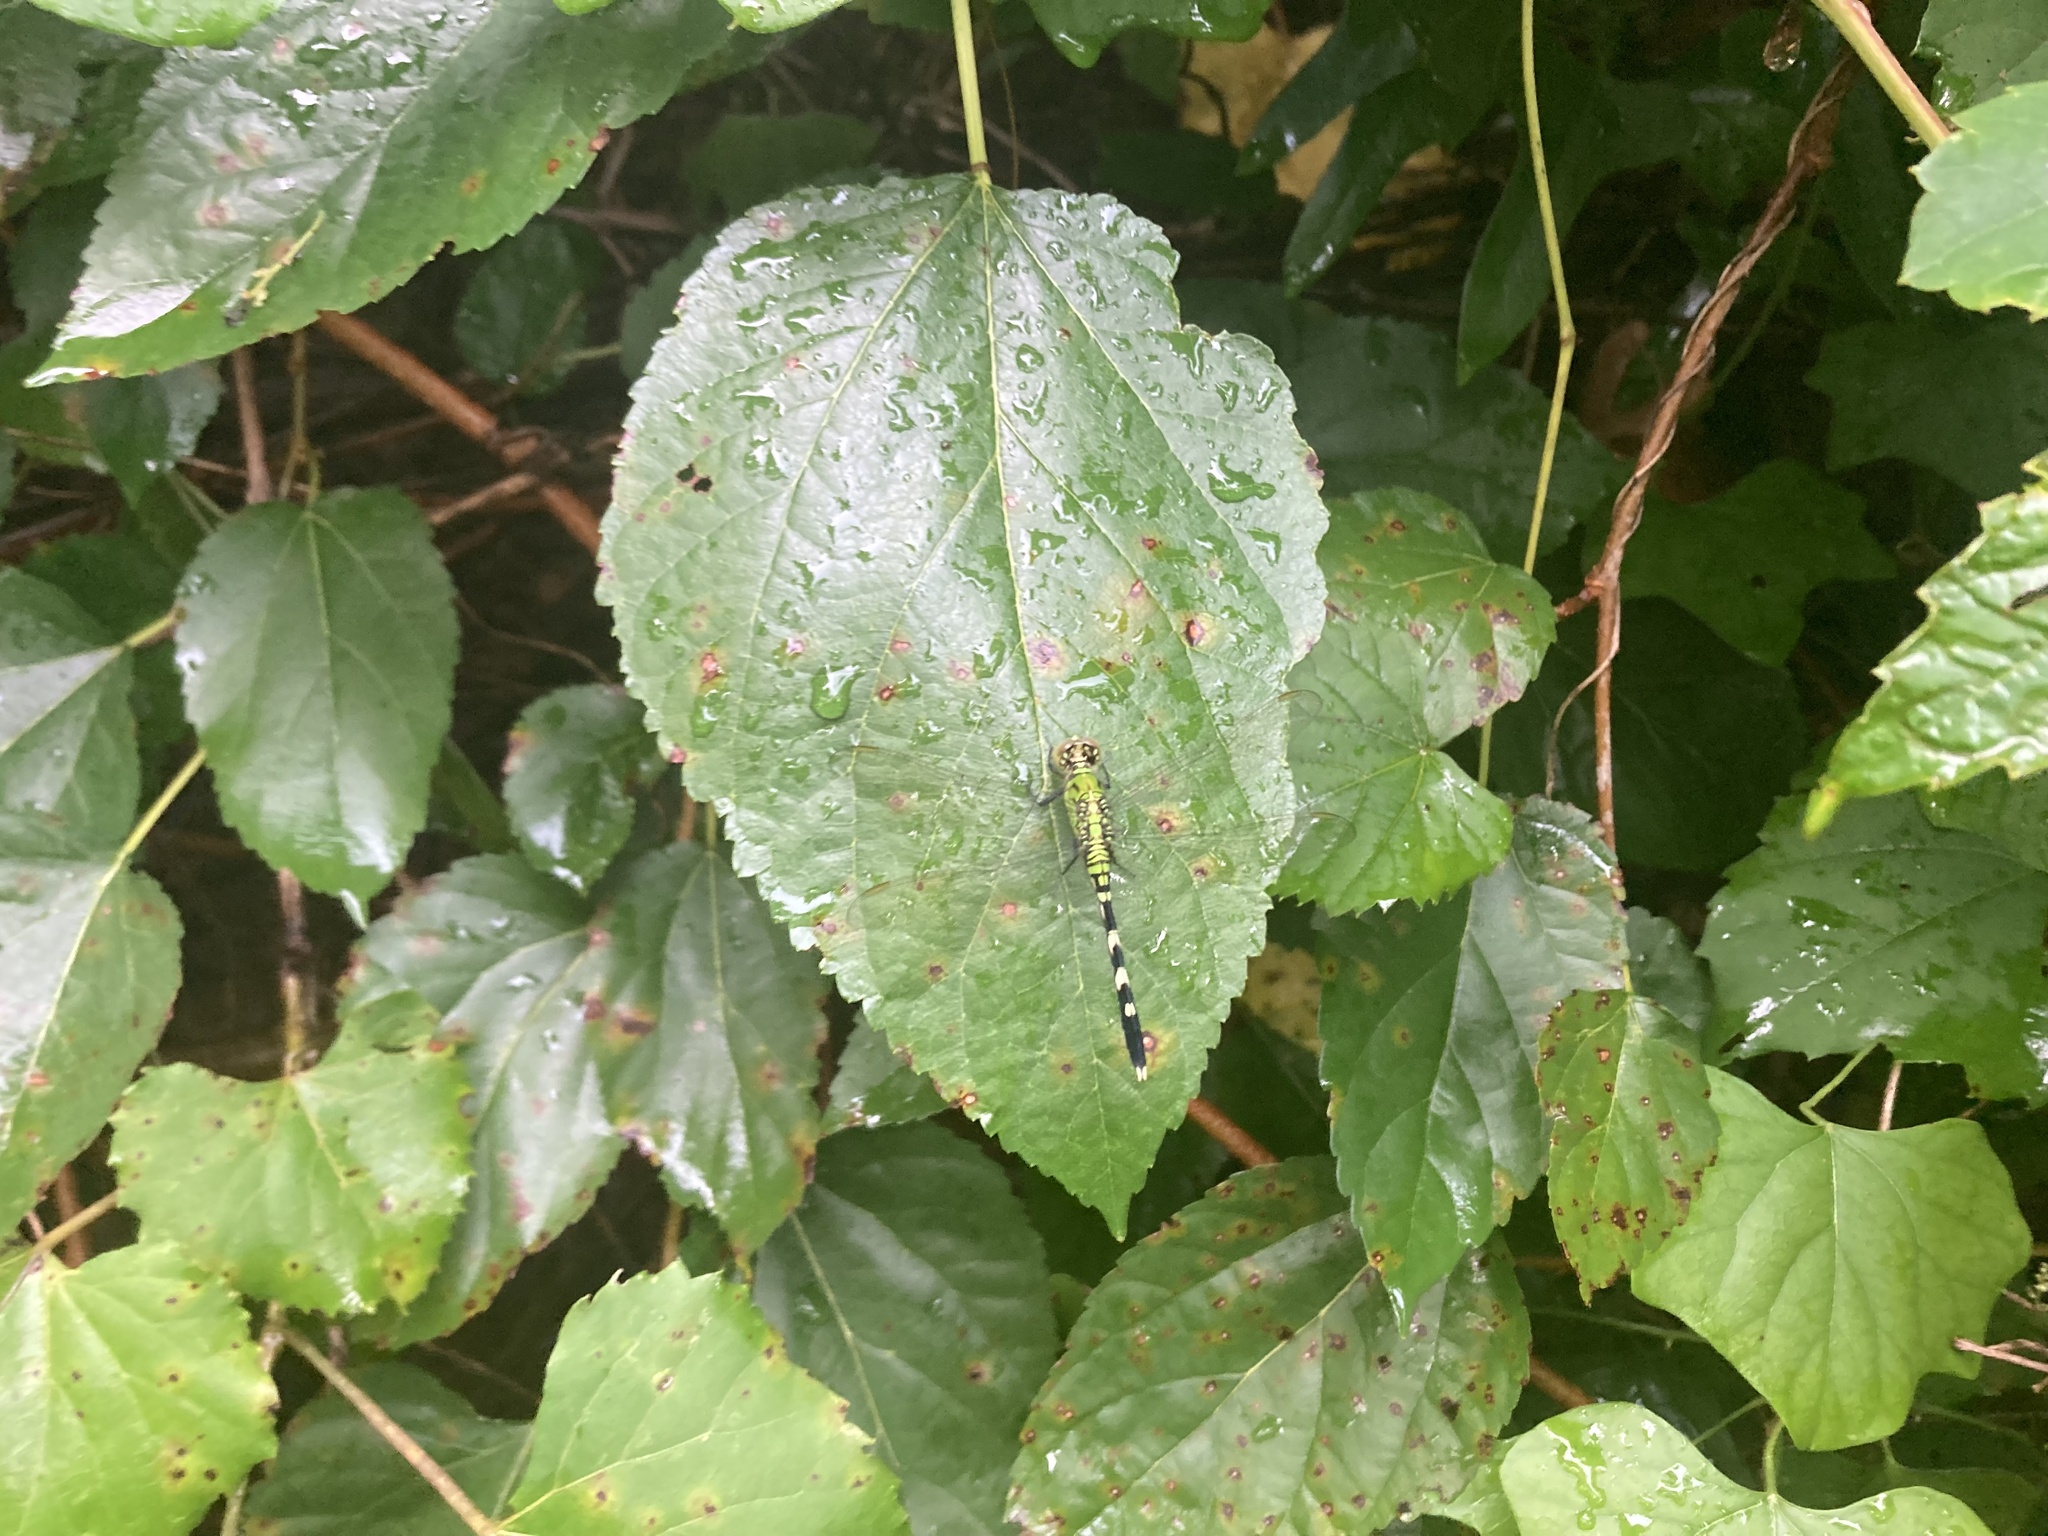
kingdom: Animalia
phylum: Arthropoda
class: Insecta
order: Odonata
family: Libellulidae
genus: Erythemis
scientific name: Erythemis simplicicollis
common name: Eastern pondhawk
